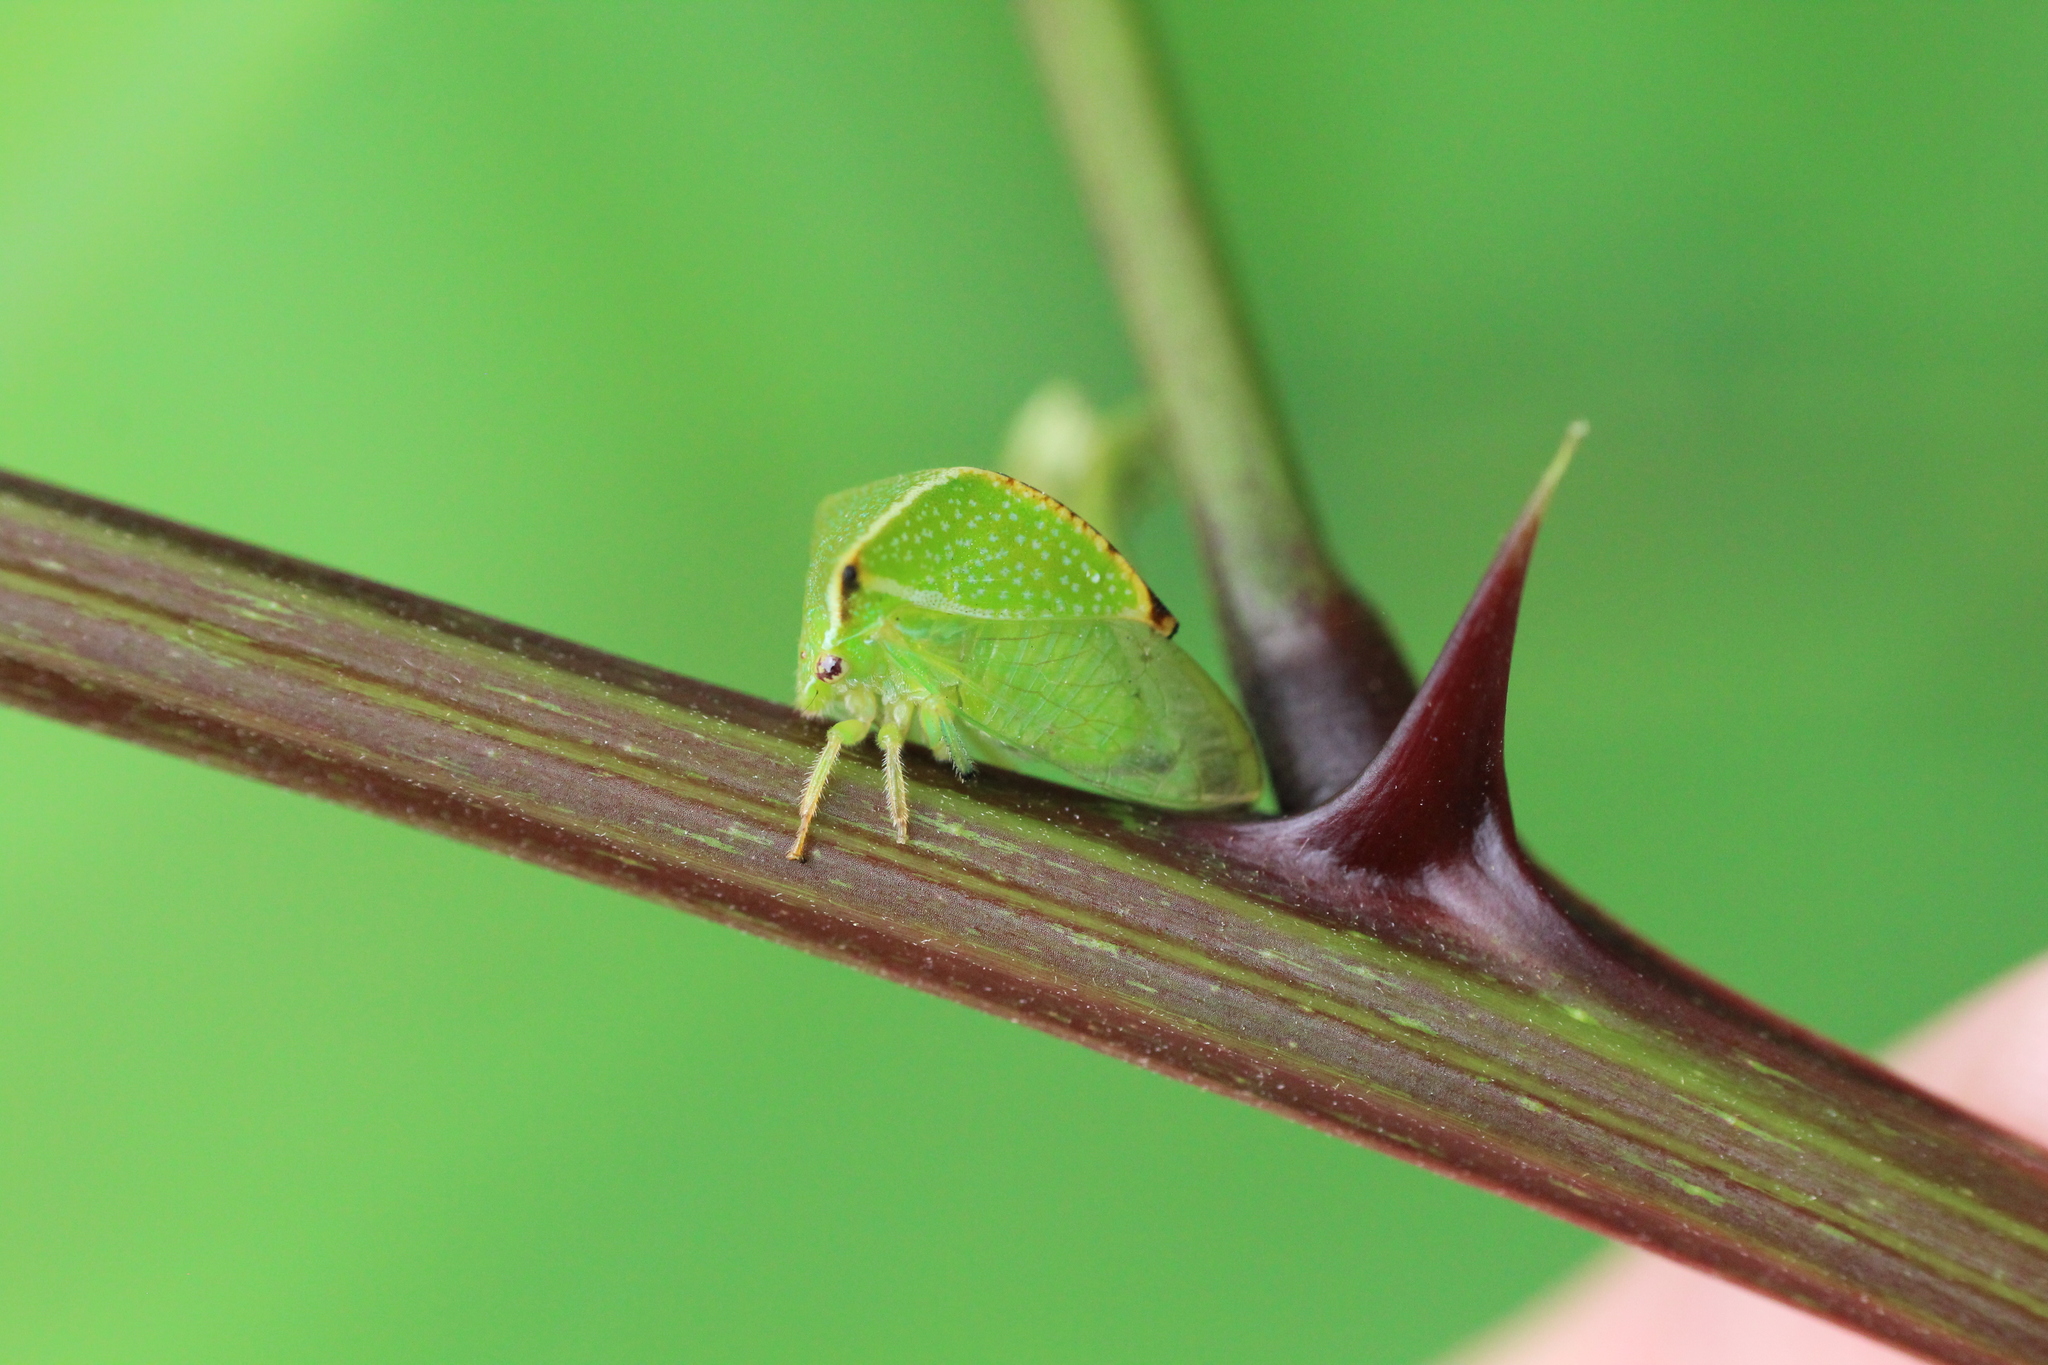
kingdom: Animalia
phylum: Arthropoda
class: Insecta
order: Hemiptera
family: Membracidae
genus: Stictocephala
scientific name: Stictocephala bisonia
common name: American buffalo treehopper
